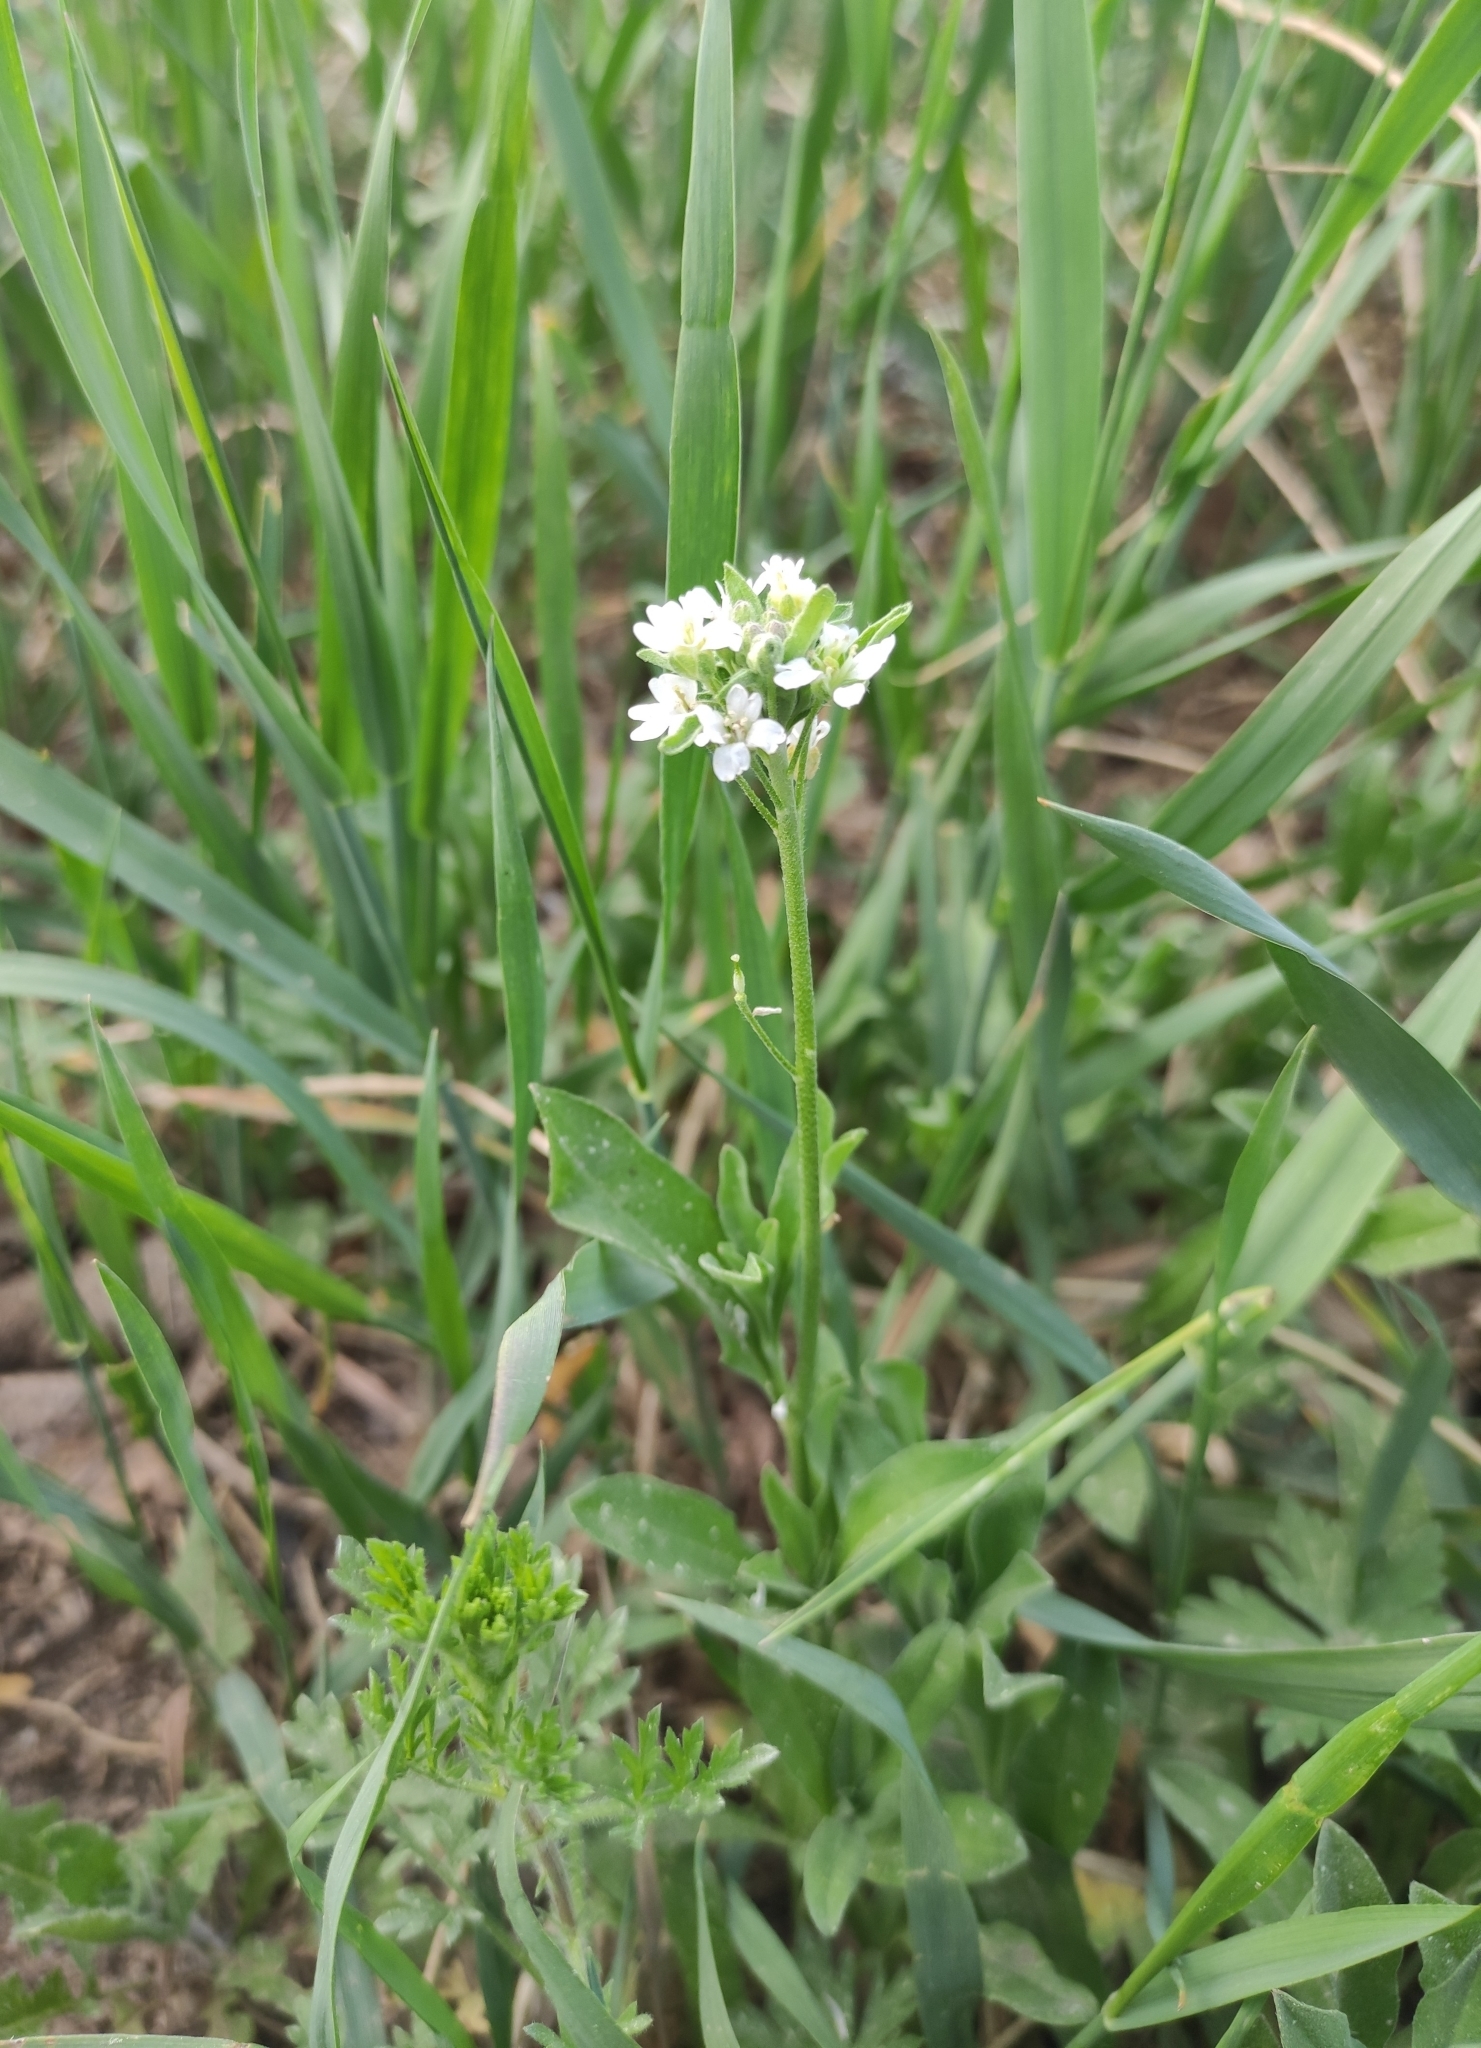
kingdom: Plantae
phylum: Tracheophyta
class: Magnoliopsida
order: Brassicales
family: Brassicaceae
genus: Berteroa
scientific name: Berteroa incana
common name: Hoary alison
